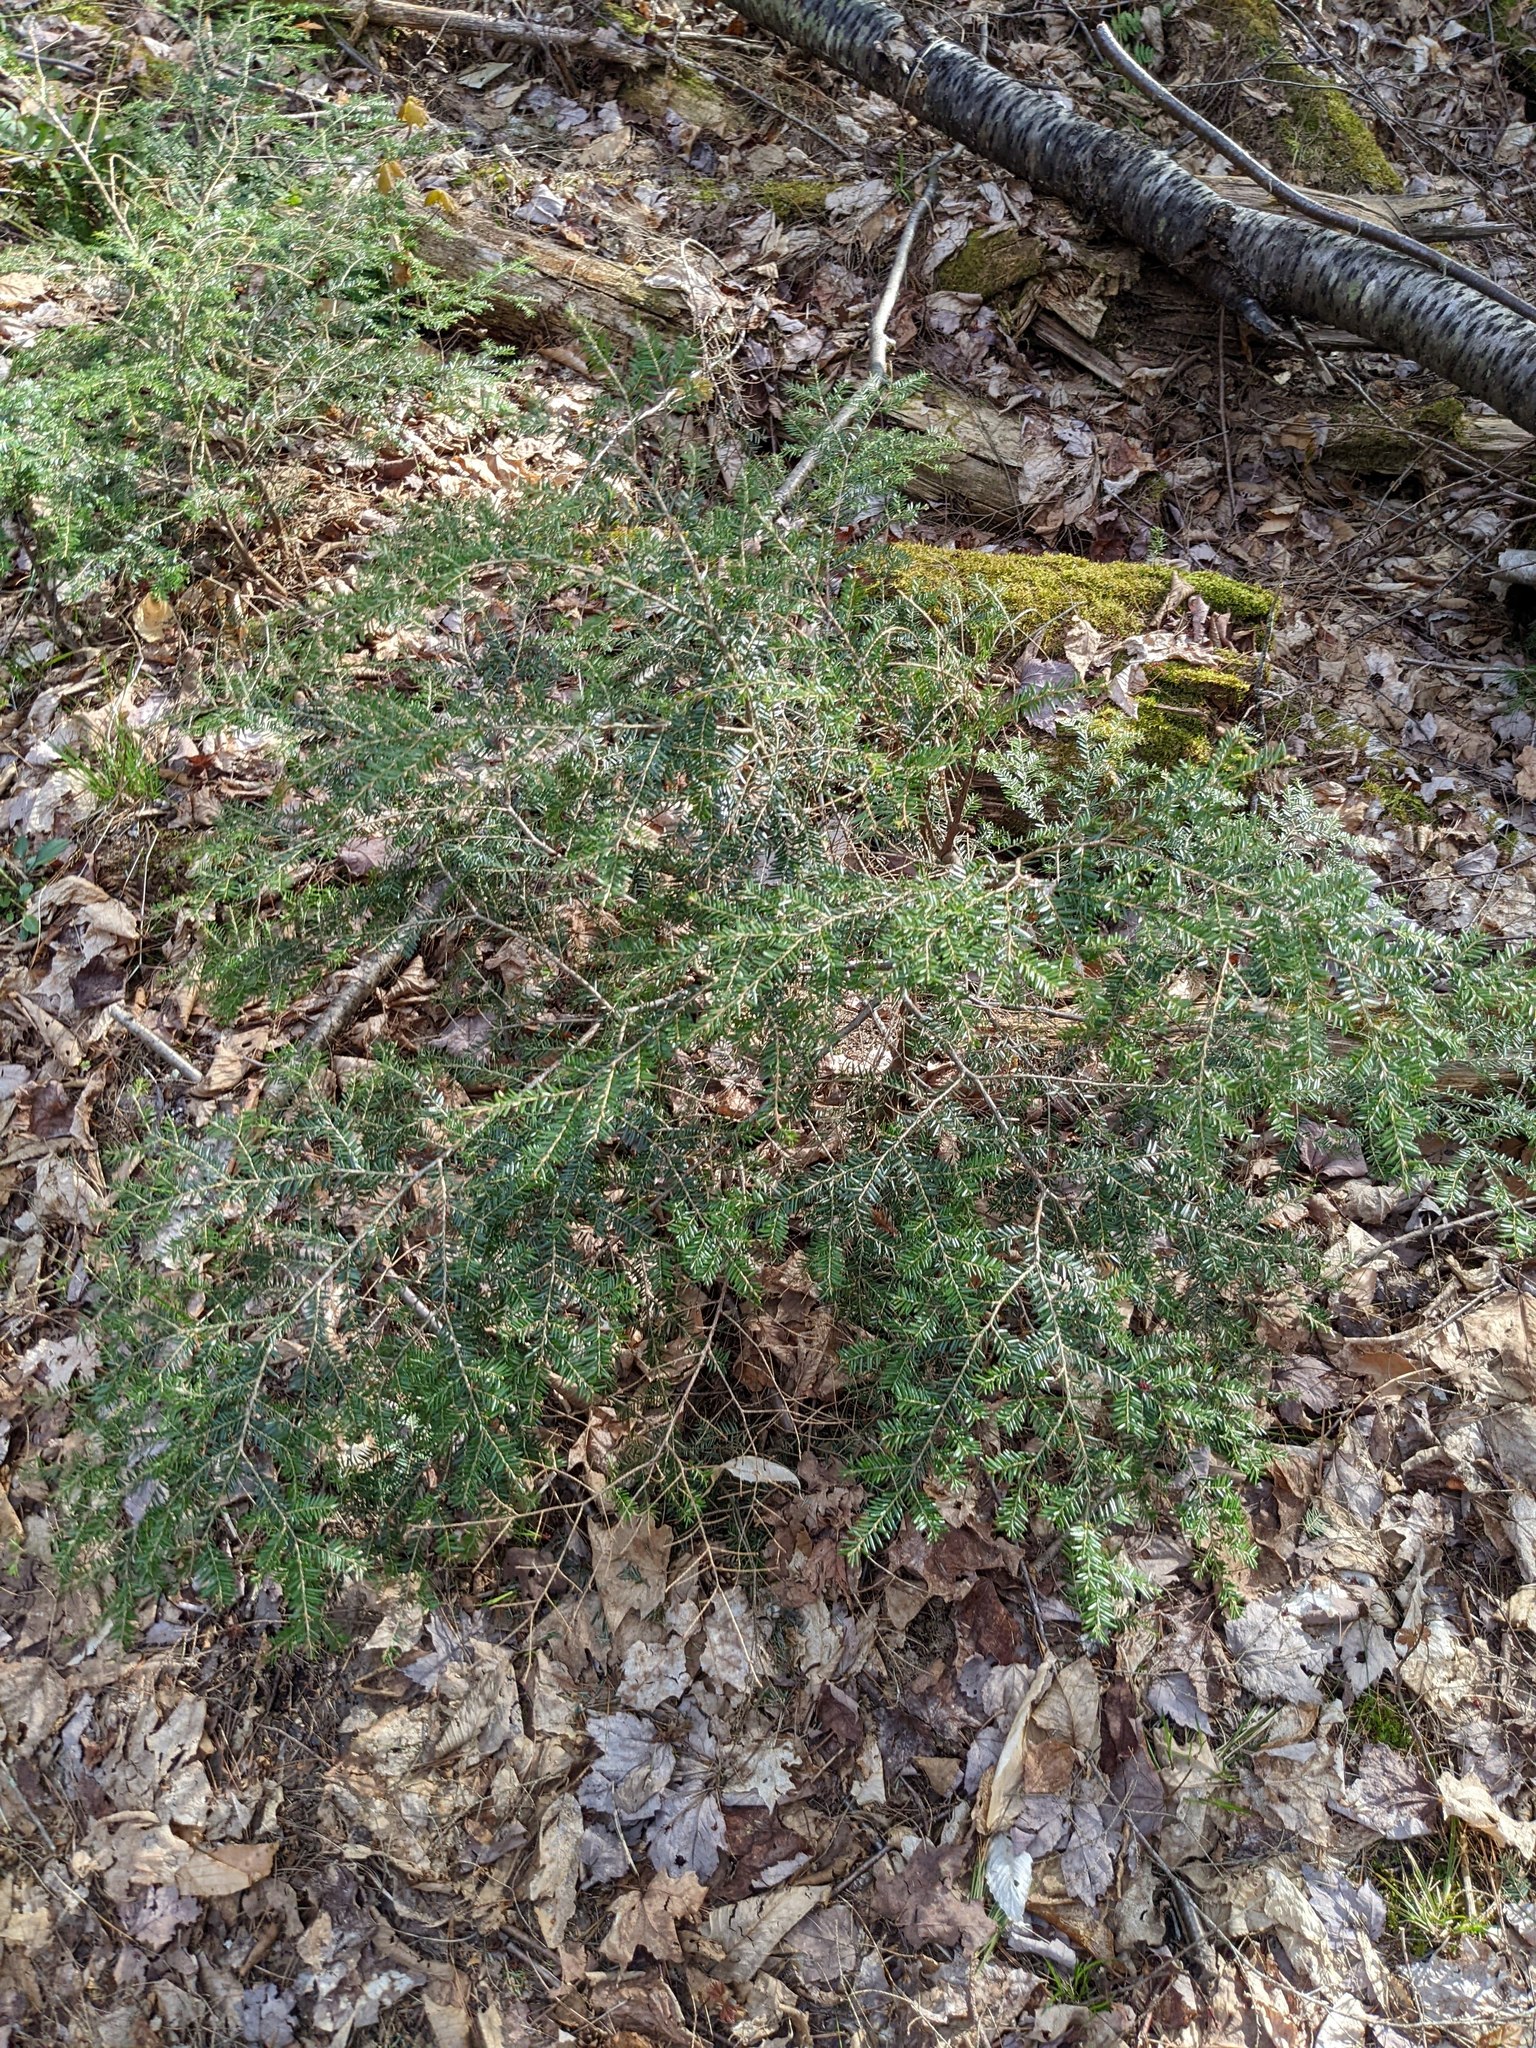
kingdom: Plantae
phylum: Tracheophyta
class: Pinopsida
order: Pinales
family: Pinaceae
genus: Tsuga
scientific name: Tsuga canadensis
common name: Eastern hemlock
